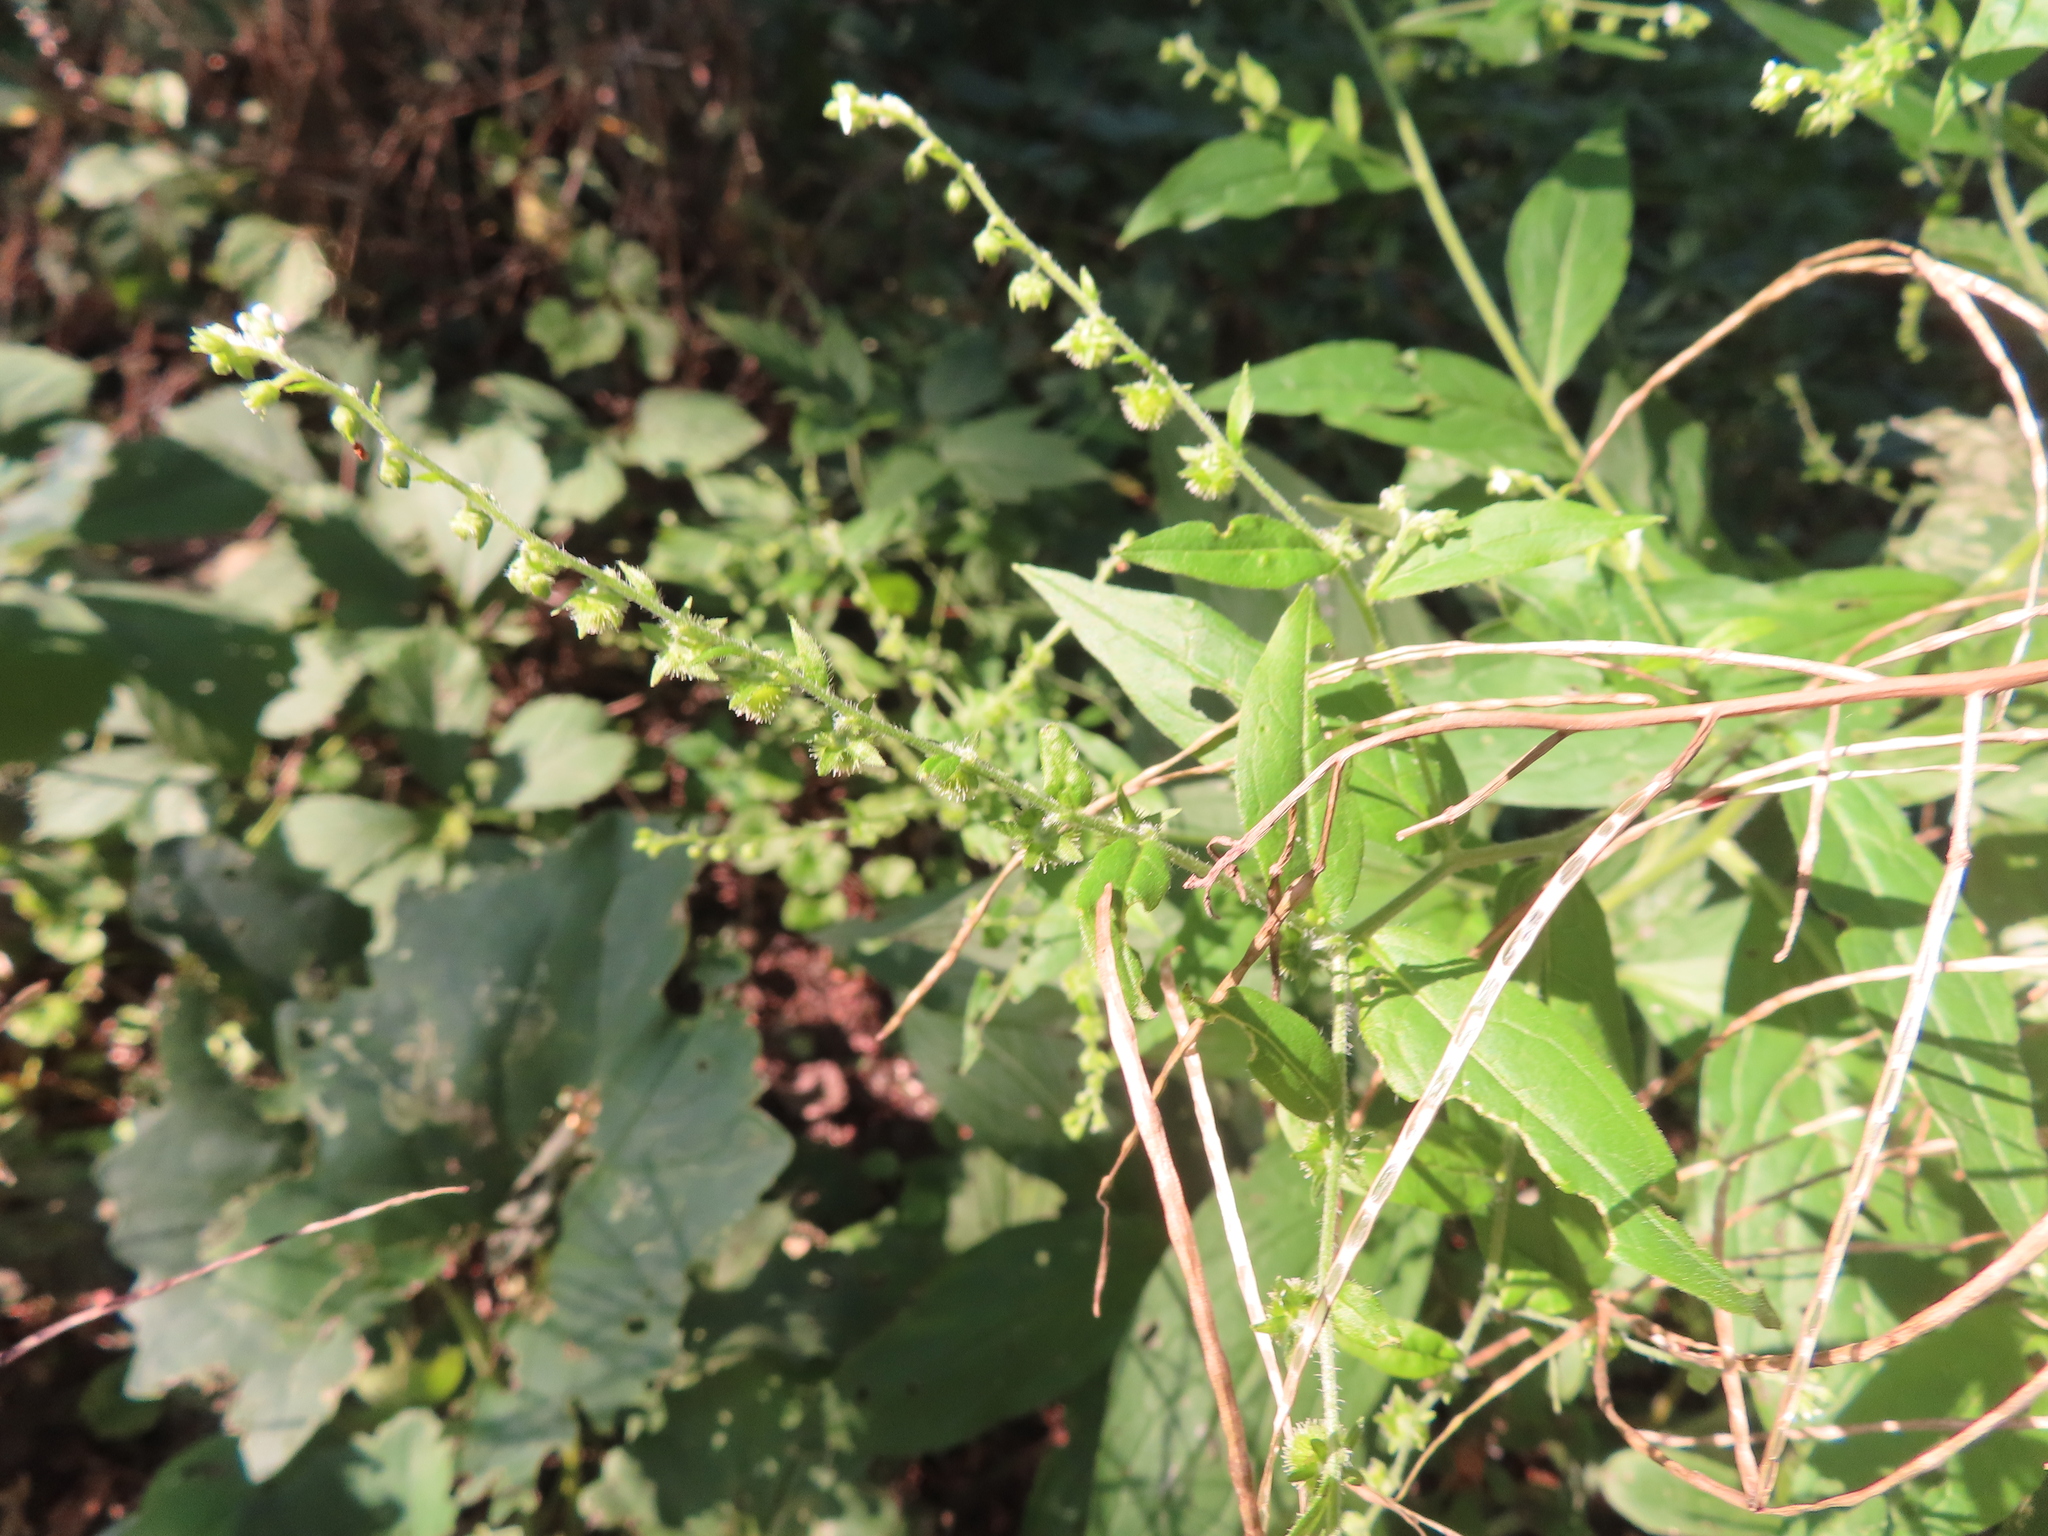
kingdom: Plantae
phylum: Tracheophyta
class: Magnoliopsida
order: Boraginales
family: Boraginaceae
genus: Hackelia
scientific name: Hackelia virginiana
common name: Beggar's-lice
